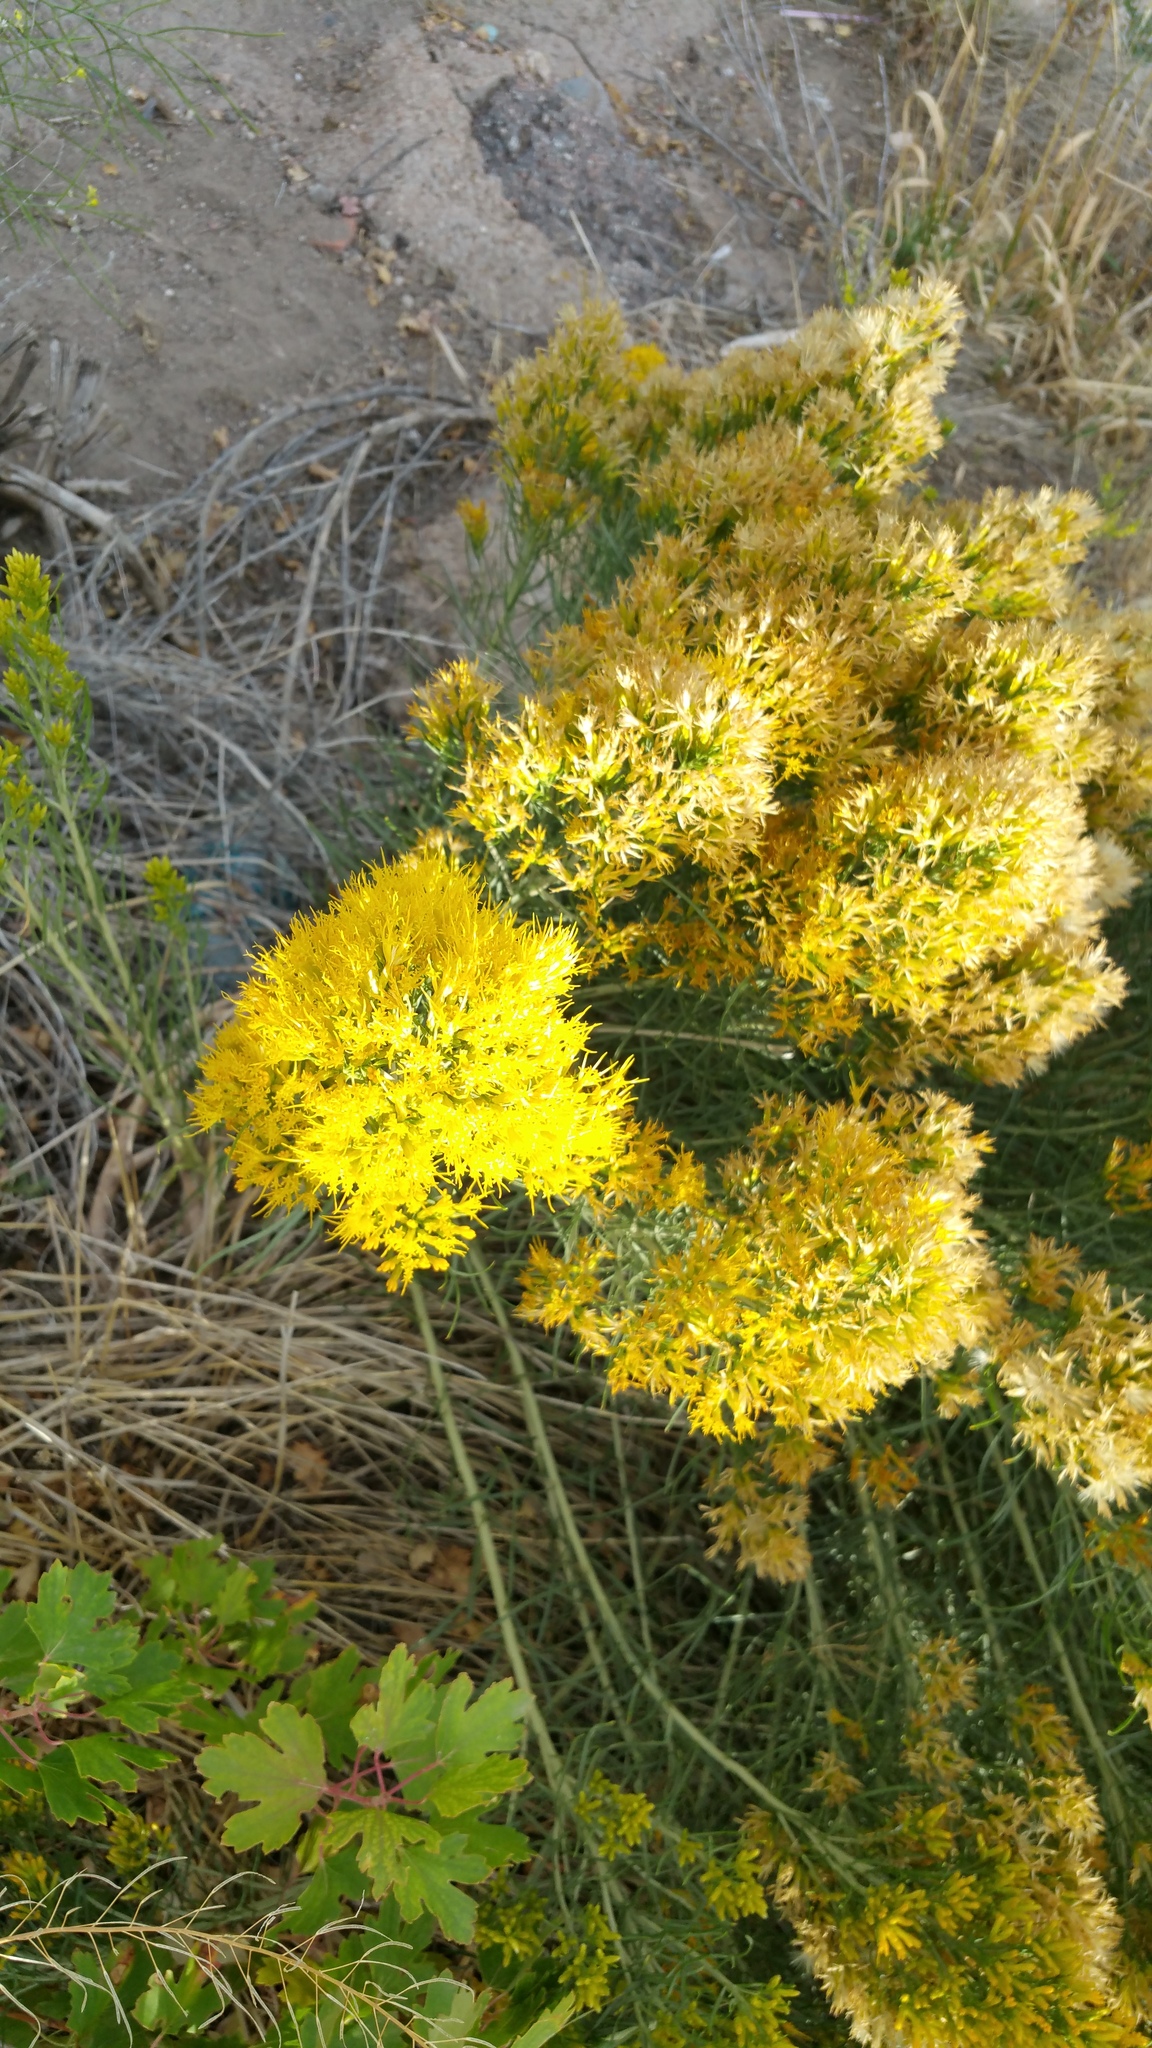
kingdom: Plantae
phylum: Tracheophyta
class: Magnoliopsida
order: Asterales
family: Asteraceae
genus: Ericameria
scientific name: Ericameria nauseosa
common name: Rubber rabbitbrush
